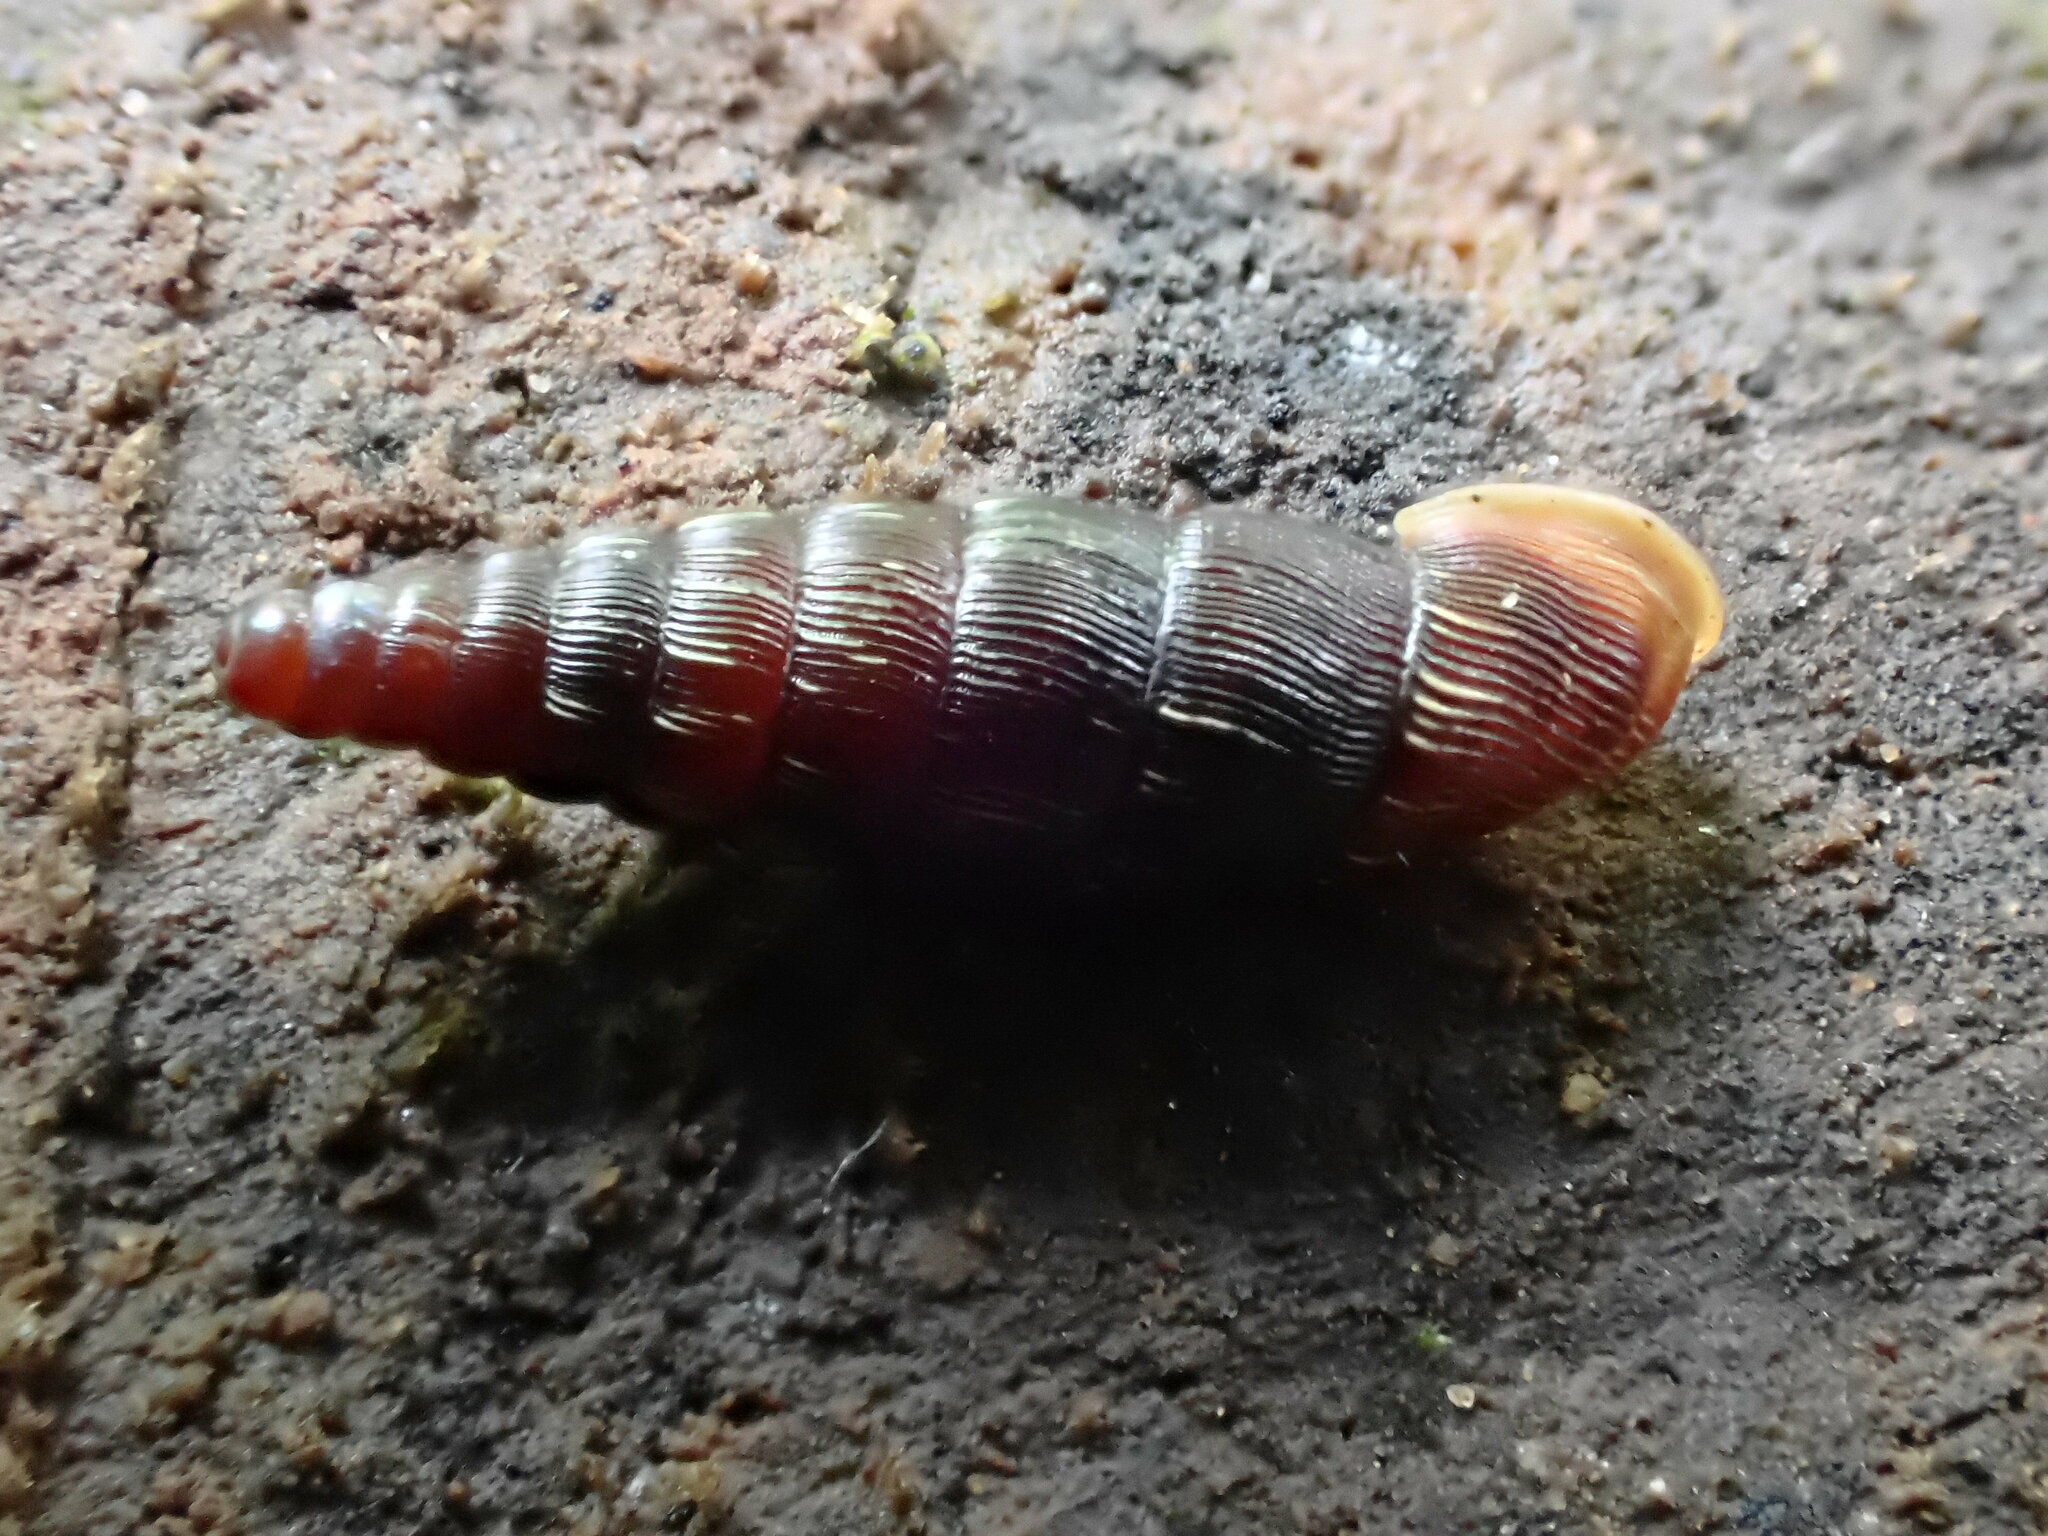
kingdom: Animalia
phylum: Mollusca
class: Gastropoda
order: Stylommatophora
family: Clausiliidae
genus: Clausilia
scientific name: Clausilia bidentata
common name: Two-toothed door snail
